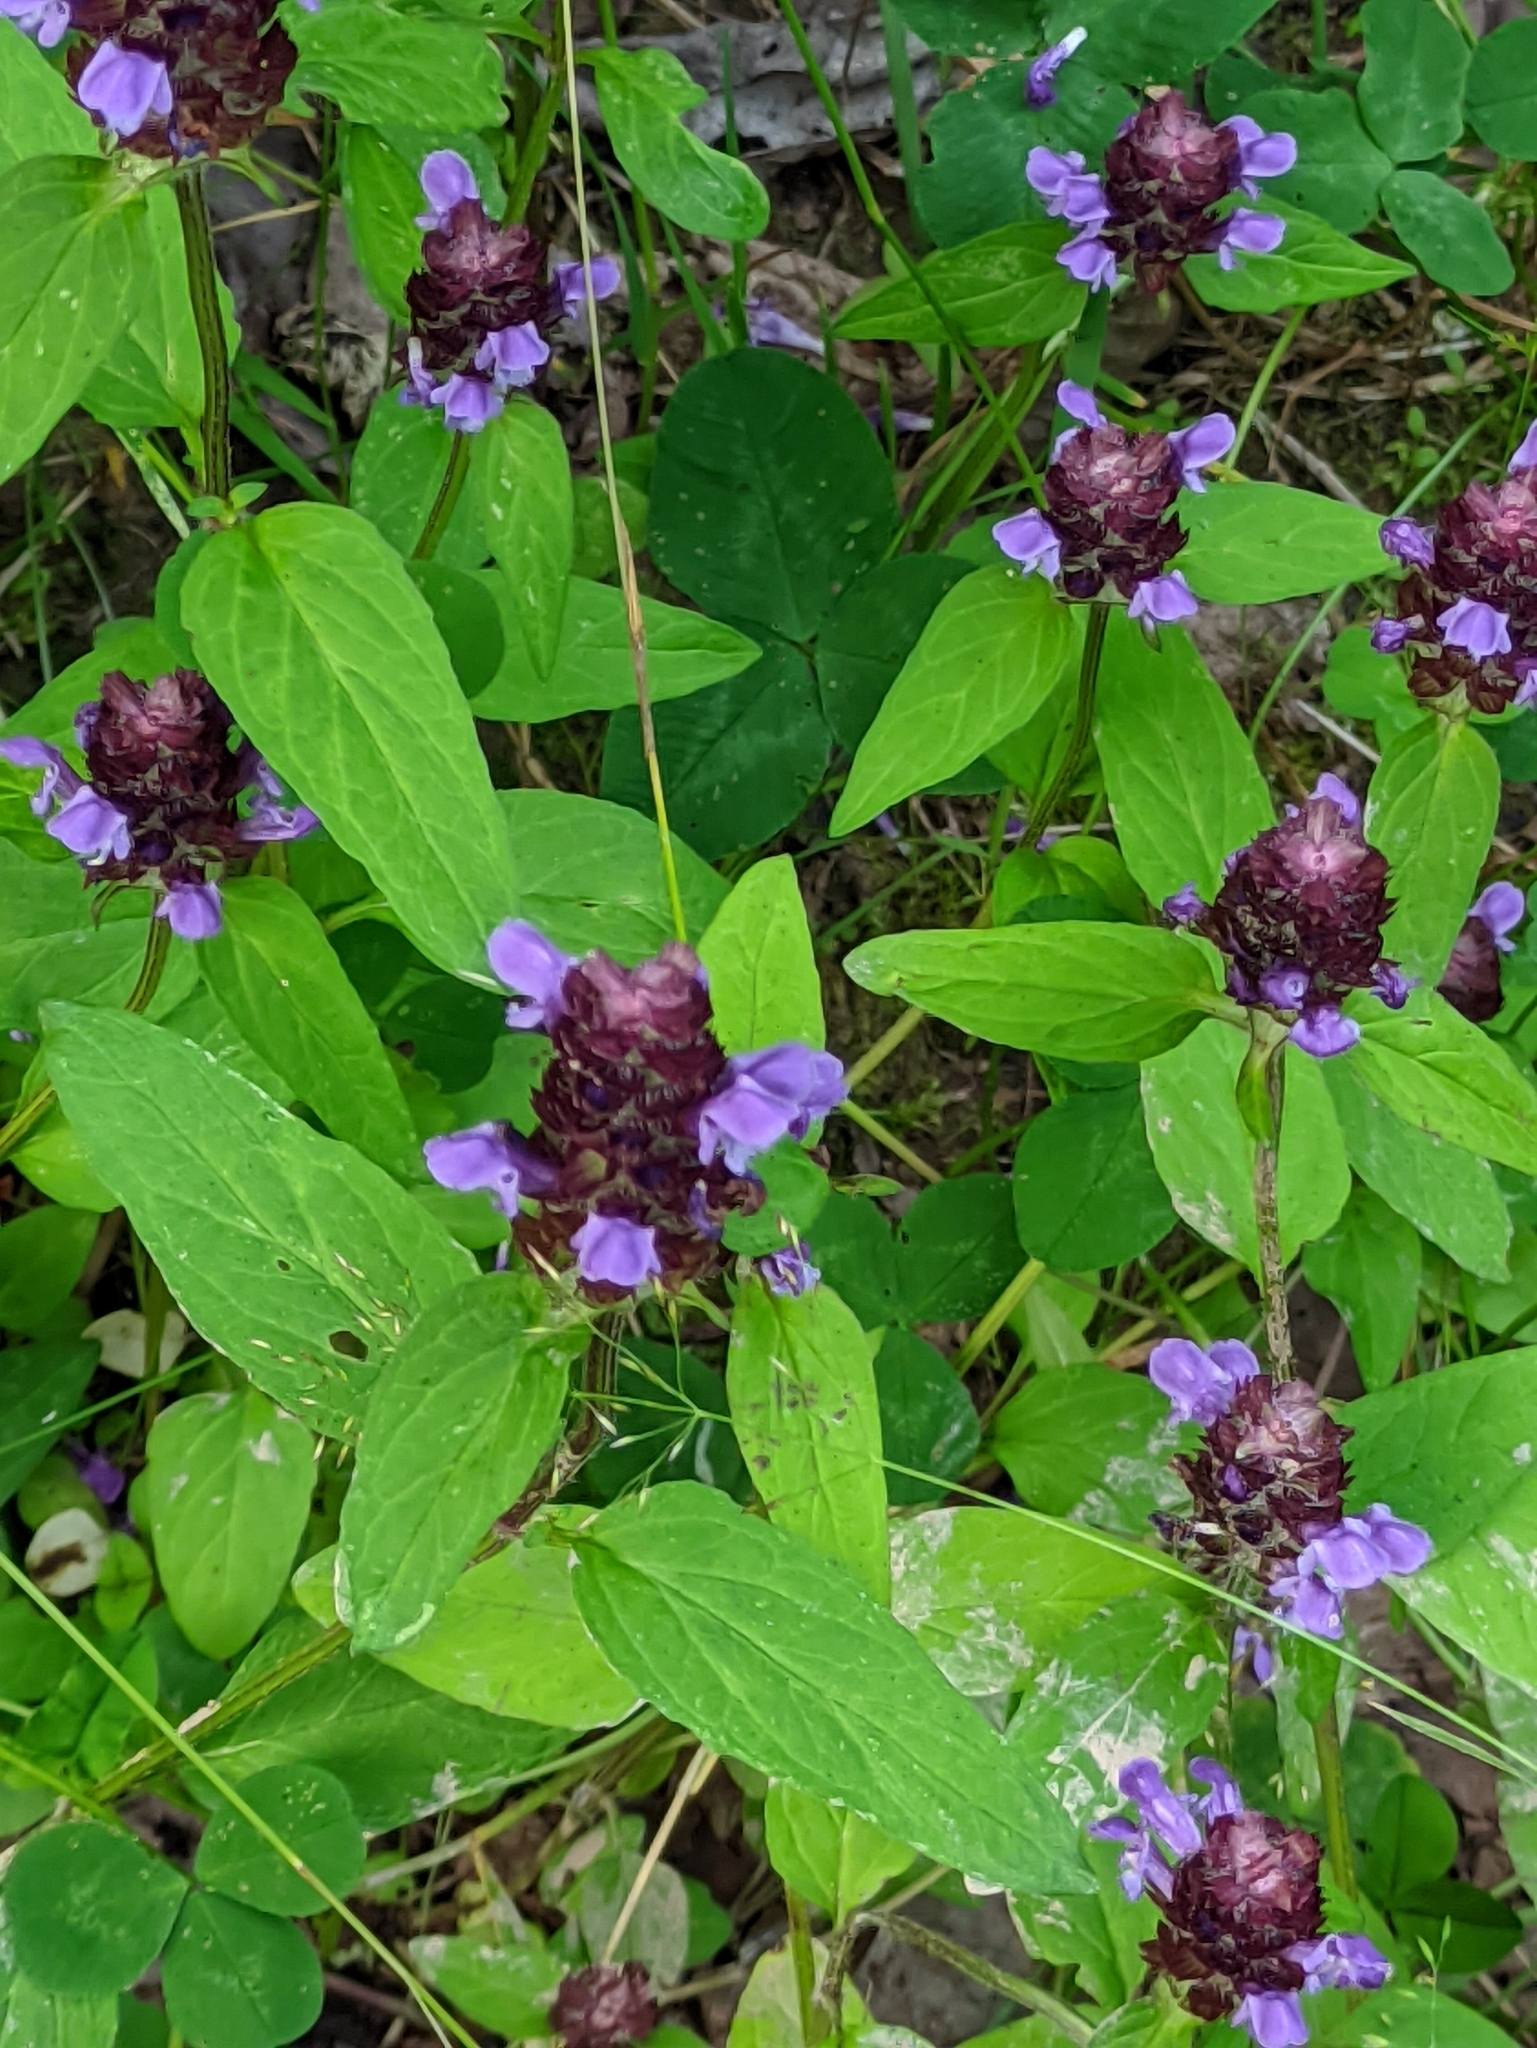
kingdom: Plantae
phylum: Tracheophyta
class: Magnoliopsida
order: Lamiales
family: Lamiaceae
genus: Prunella
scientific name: Prunella vulgaris
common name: Heal-all
